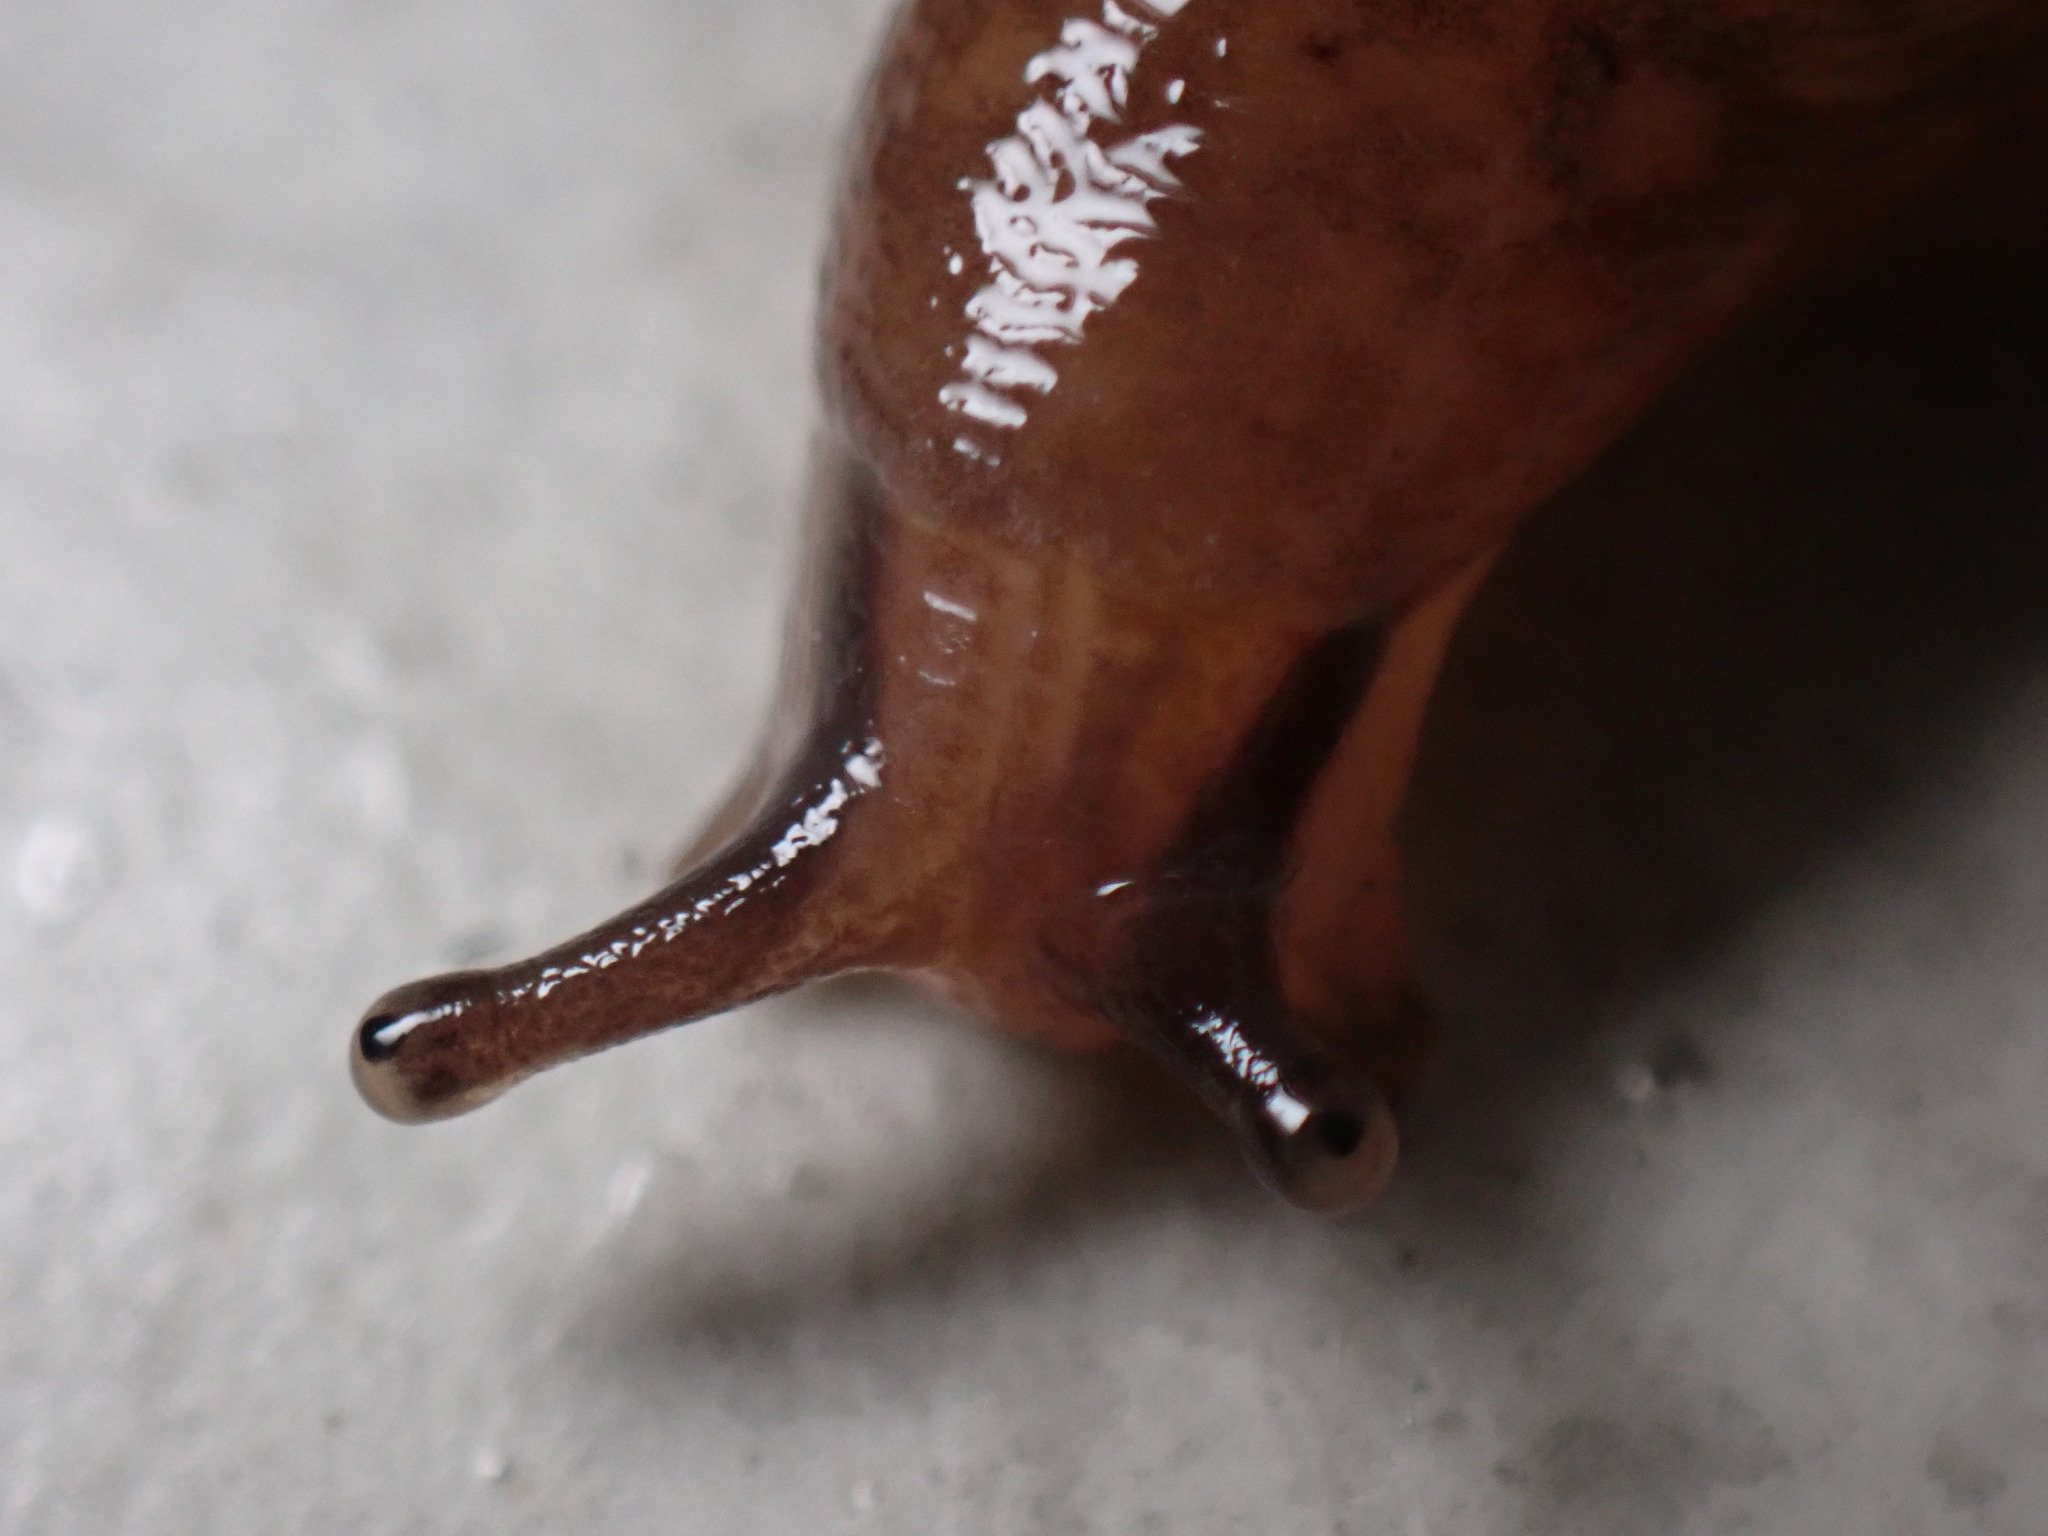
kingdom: Animalia
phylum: Mollusca
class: Gastropoda
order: Stylommatophora
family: Limacidae
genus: Ambigolimax
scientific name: Ambigolimax valentianus
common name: Greenhouse slug
